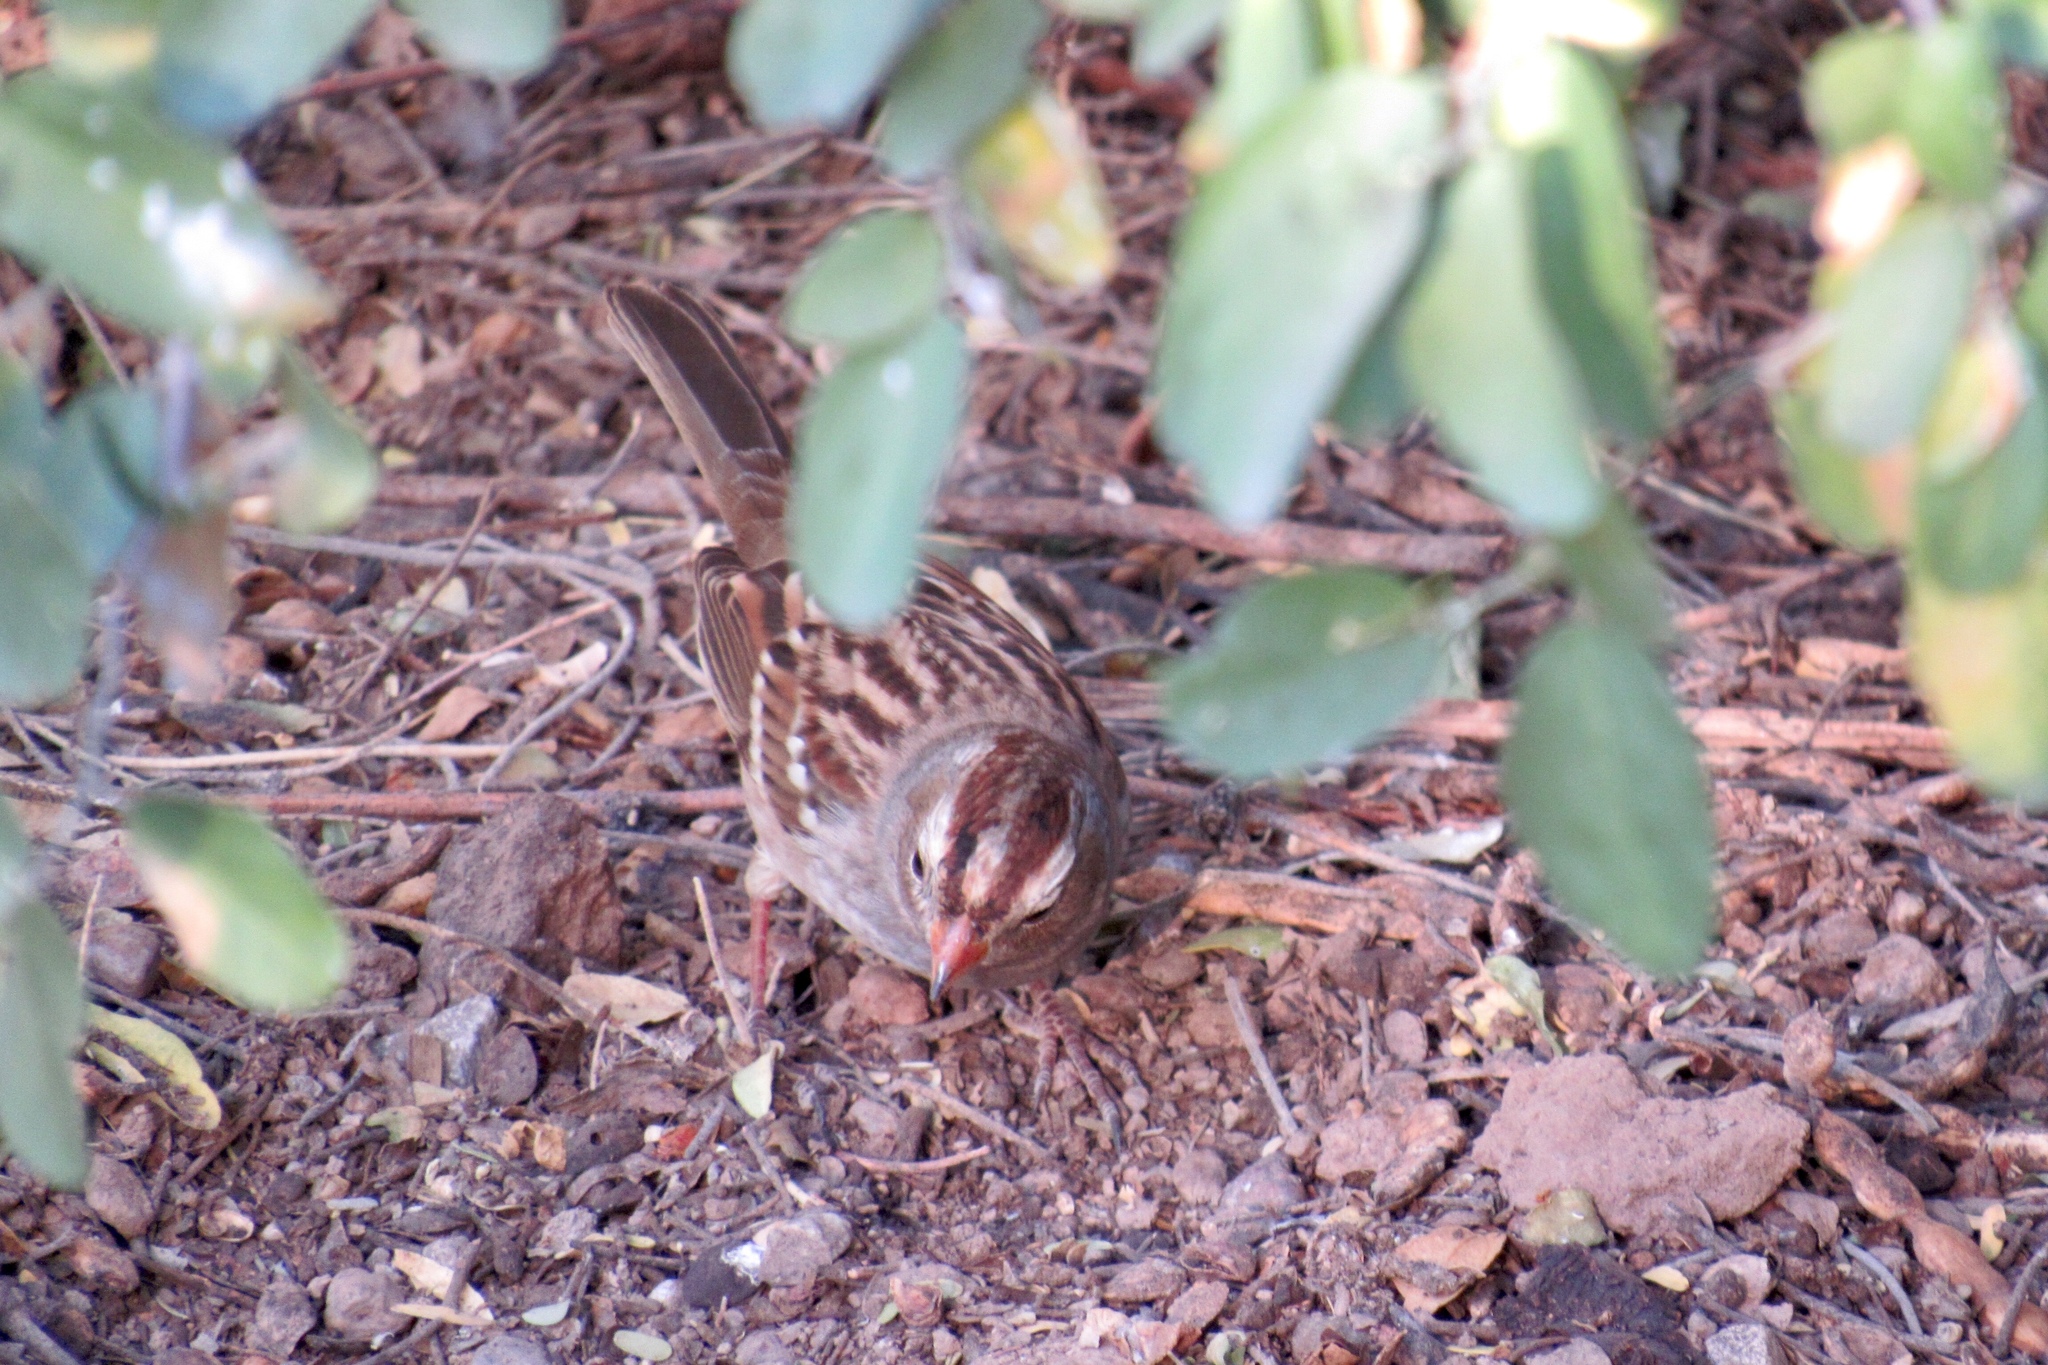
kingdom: Animalia
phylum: Chordata
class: Aves
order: Passeriformes
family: Passerellidae
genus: Zonotrichia
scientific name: Zonotrichia leucophrys
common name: White-crowned sparrow
